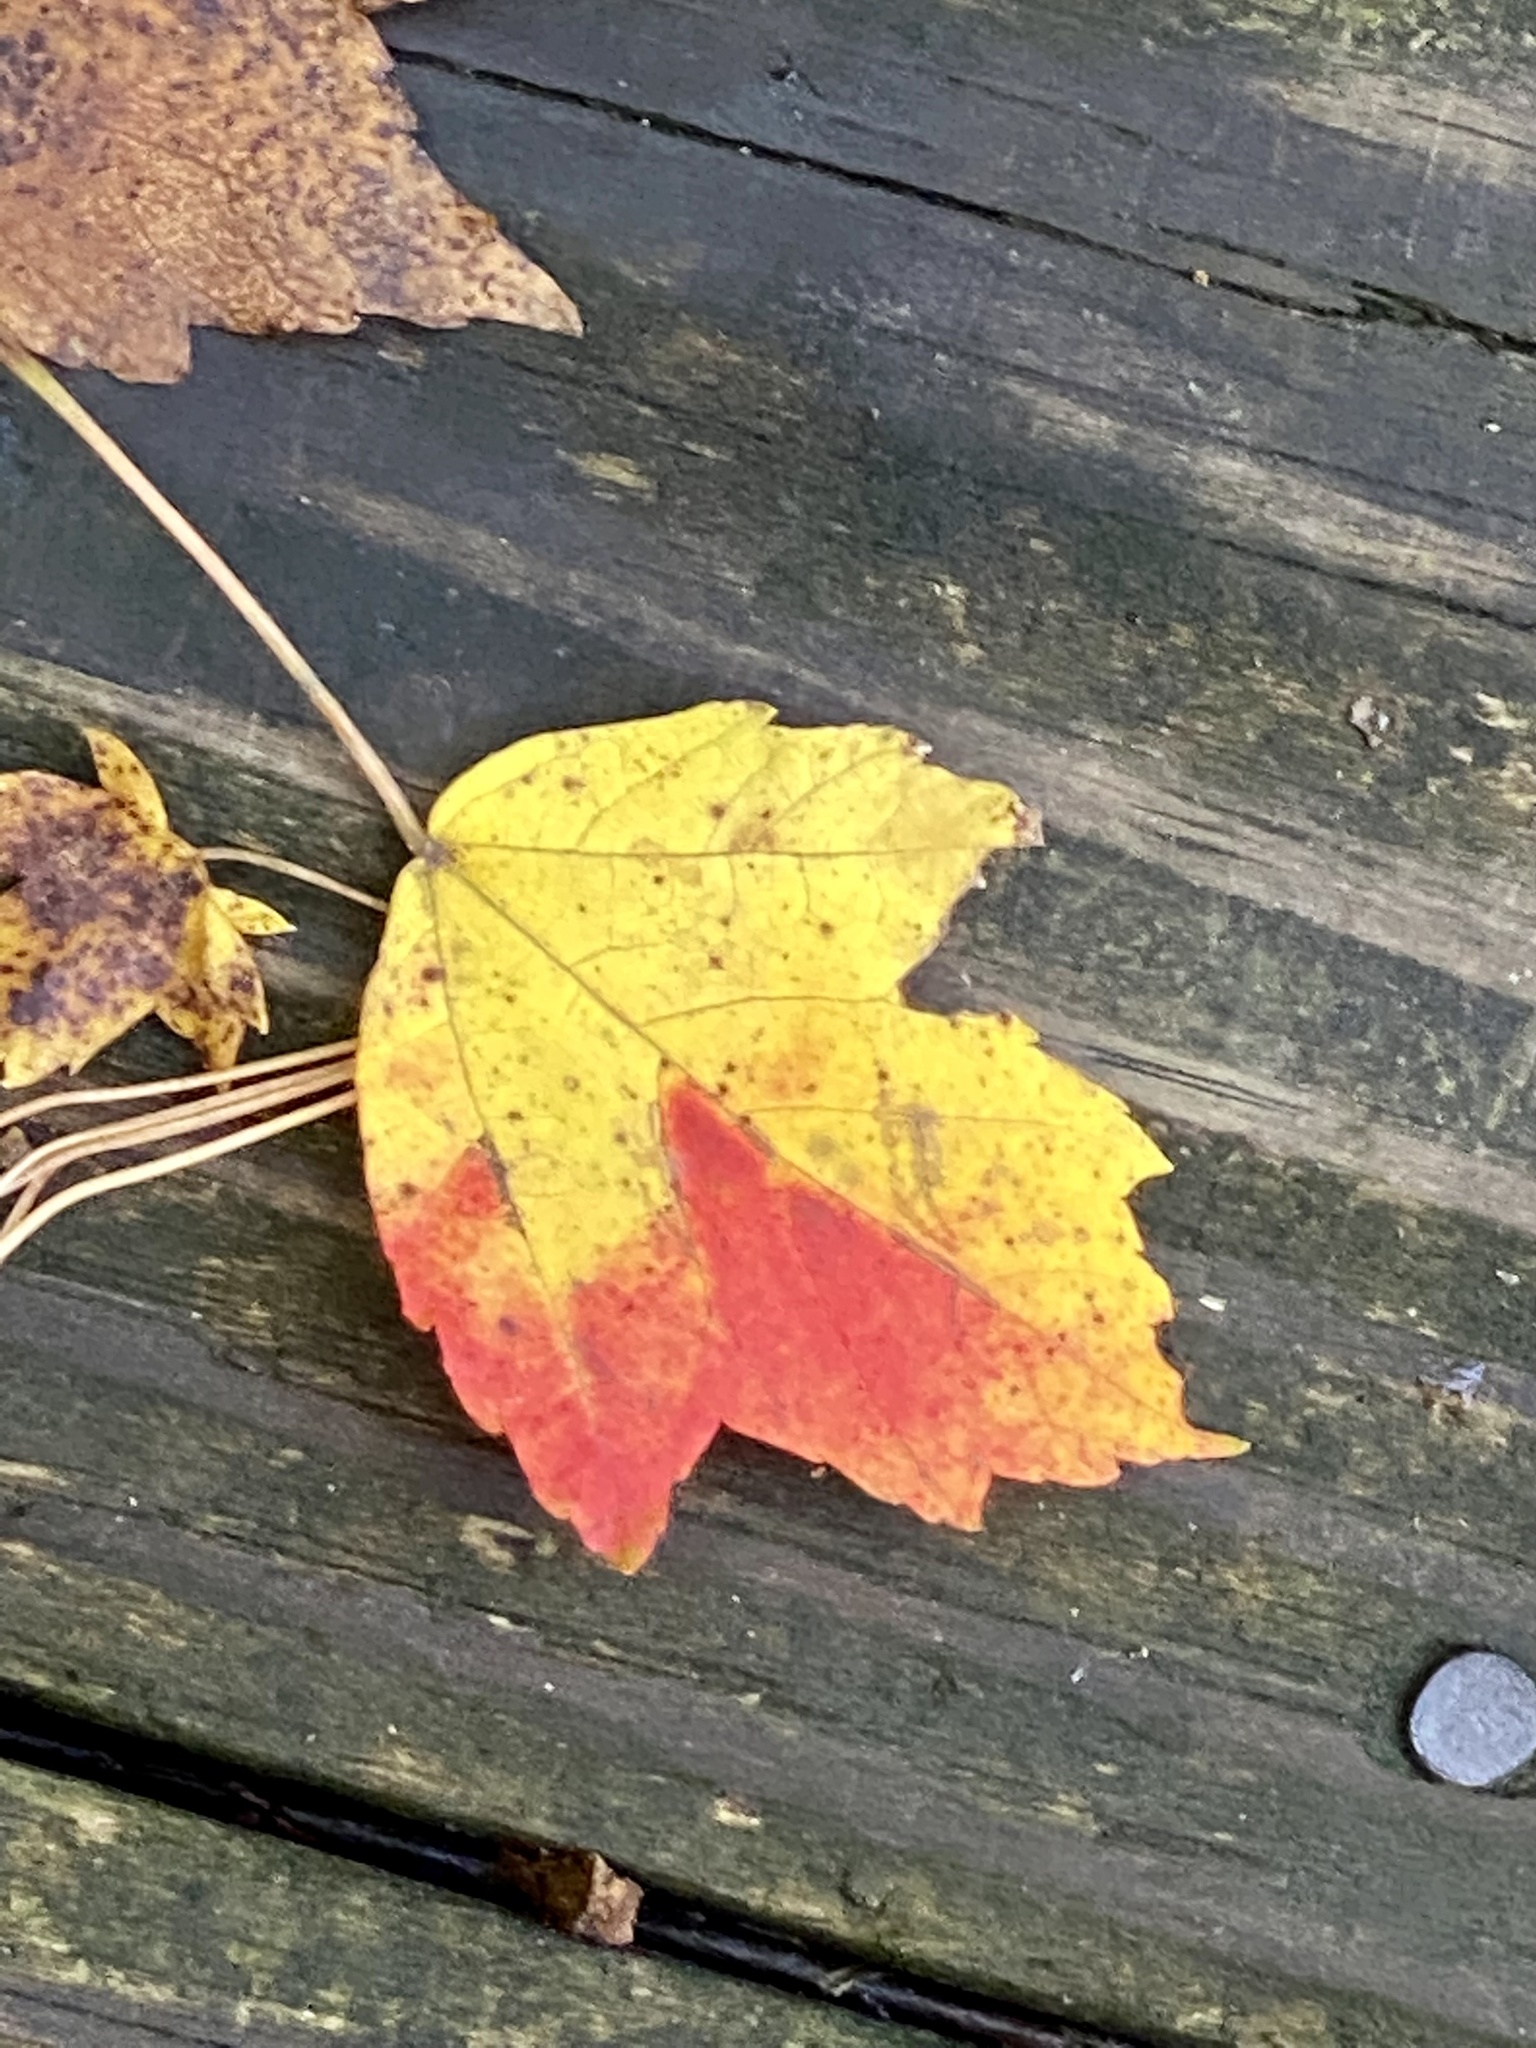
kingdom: Plantae
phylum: Tracheophyta
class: Magnoliopsida
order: Sapindales
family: Sapindaceae
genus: Acer
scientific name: Acer rubrum
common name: Red maple
